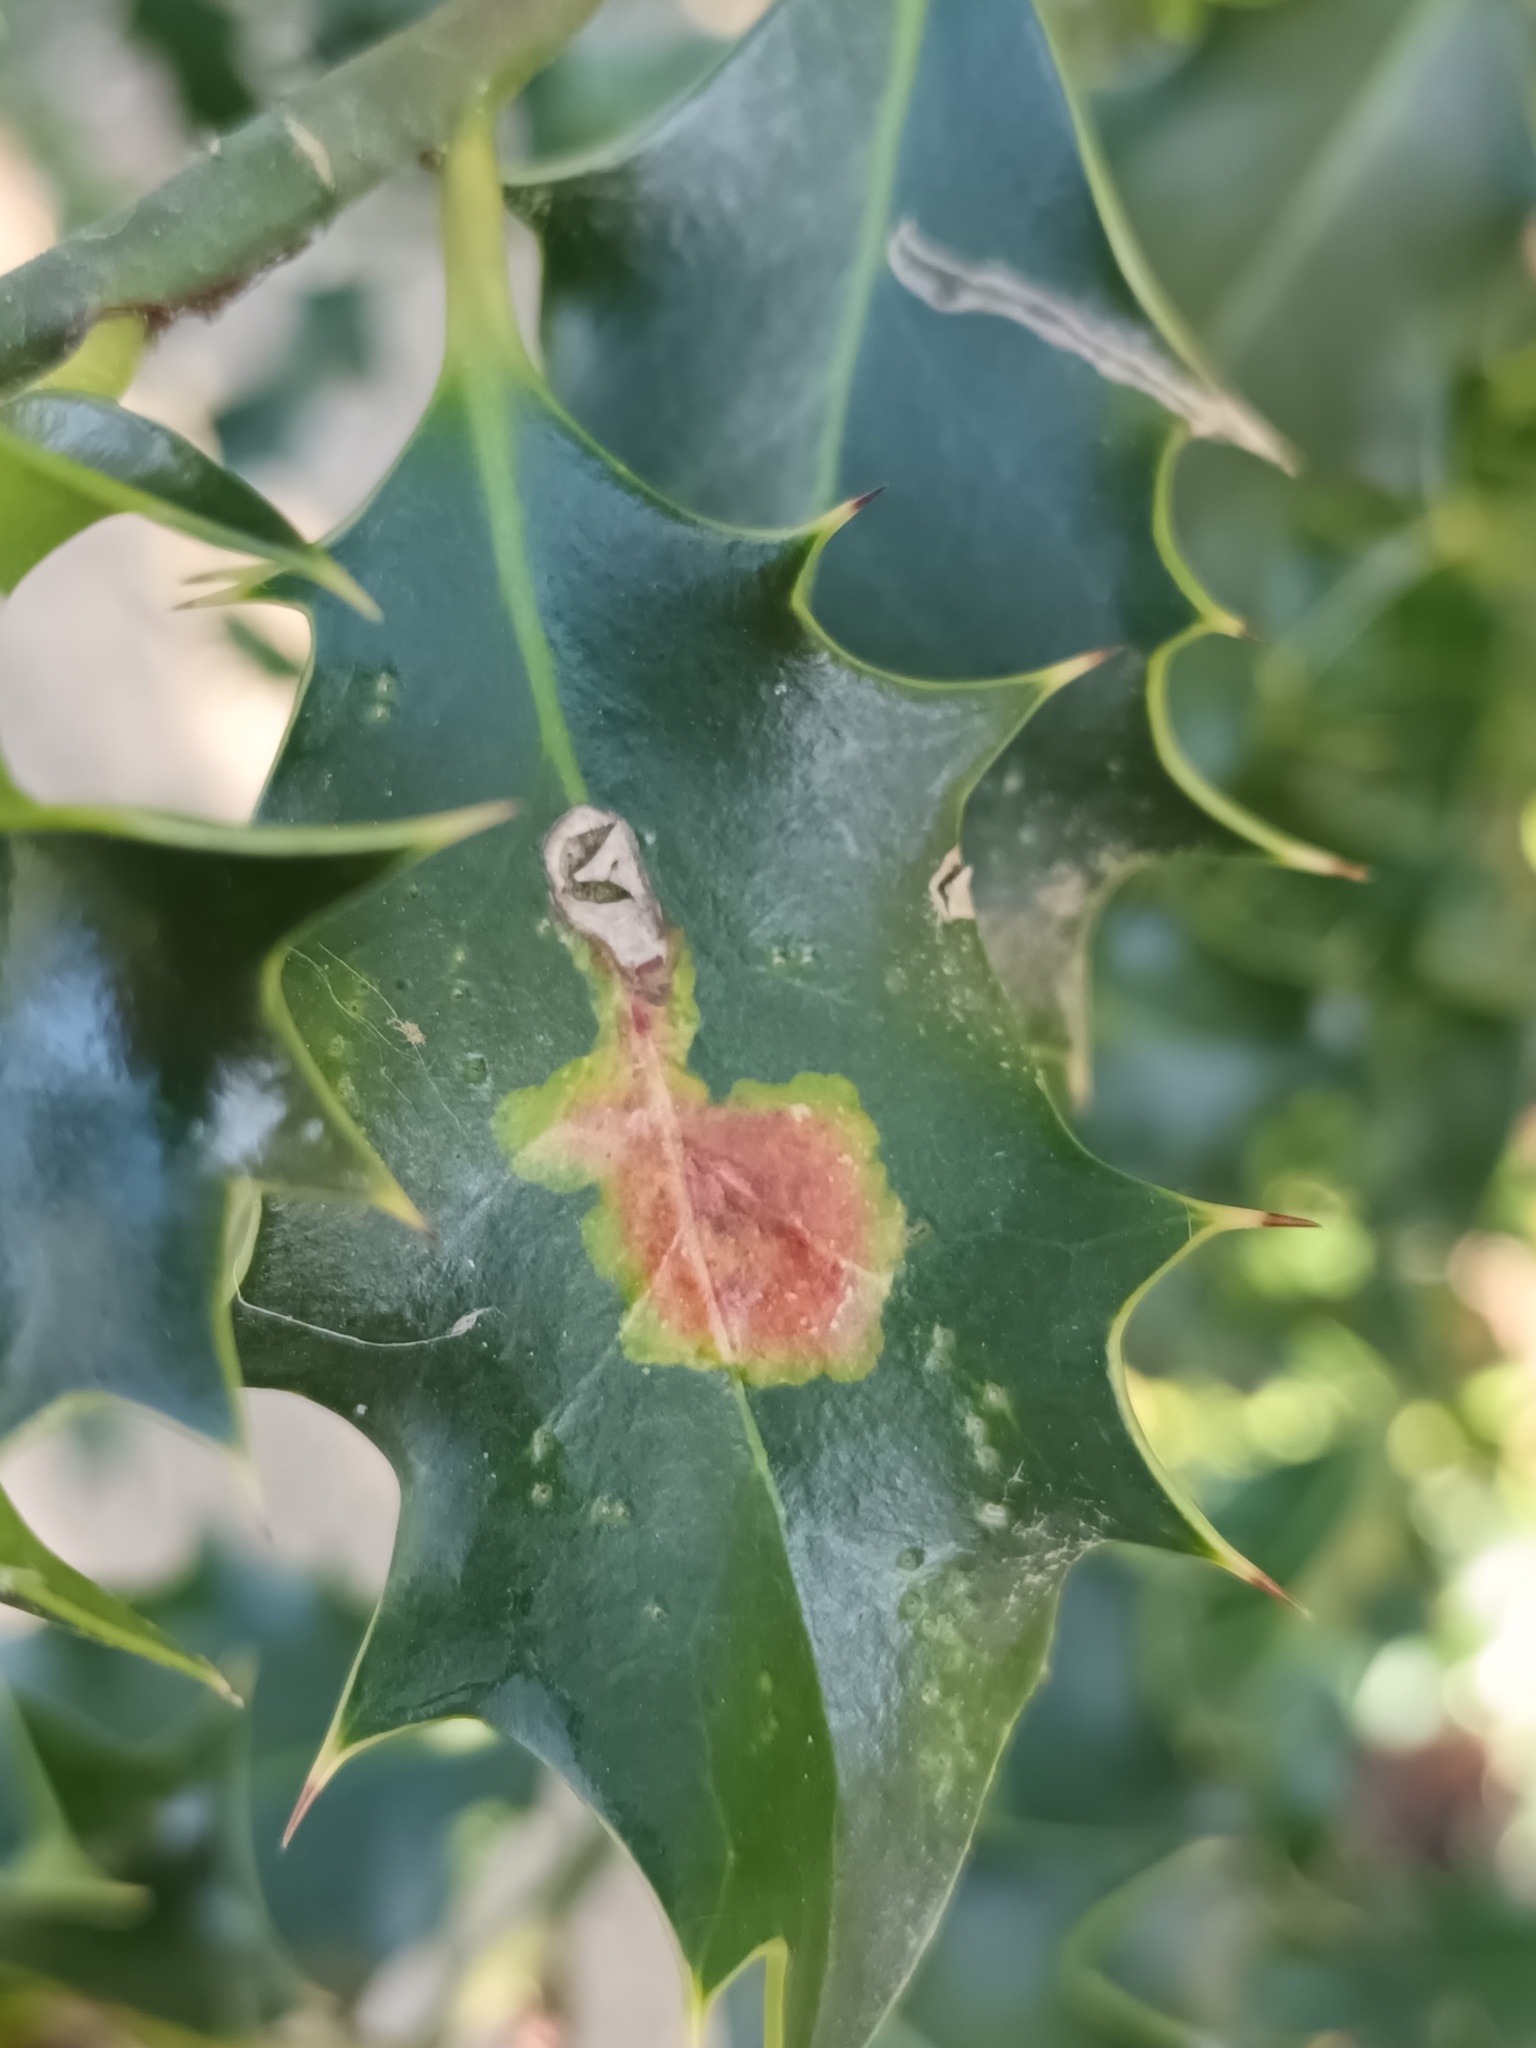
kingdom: Animalia
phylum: Arthropoda
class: Insecta
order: Diptera
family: Agromyzidae
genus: Phytomyza
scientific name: Phytomyza ilicis
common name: Holly leafminer
